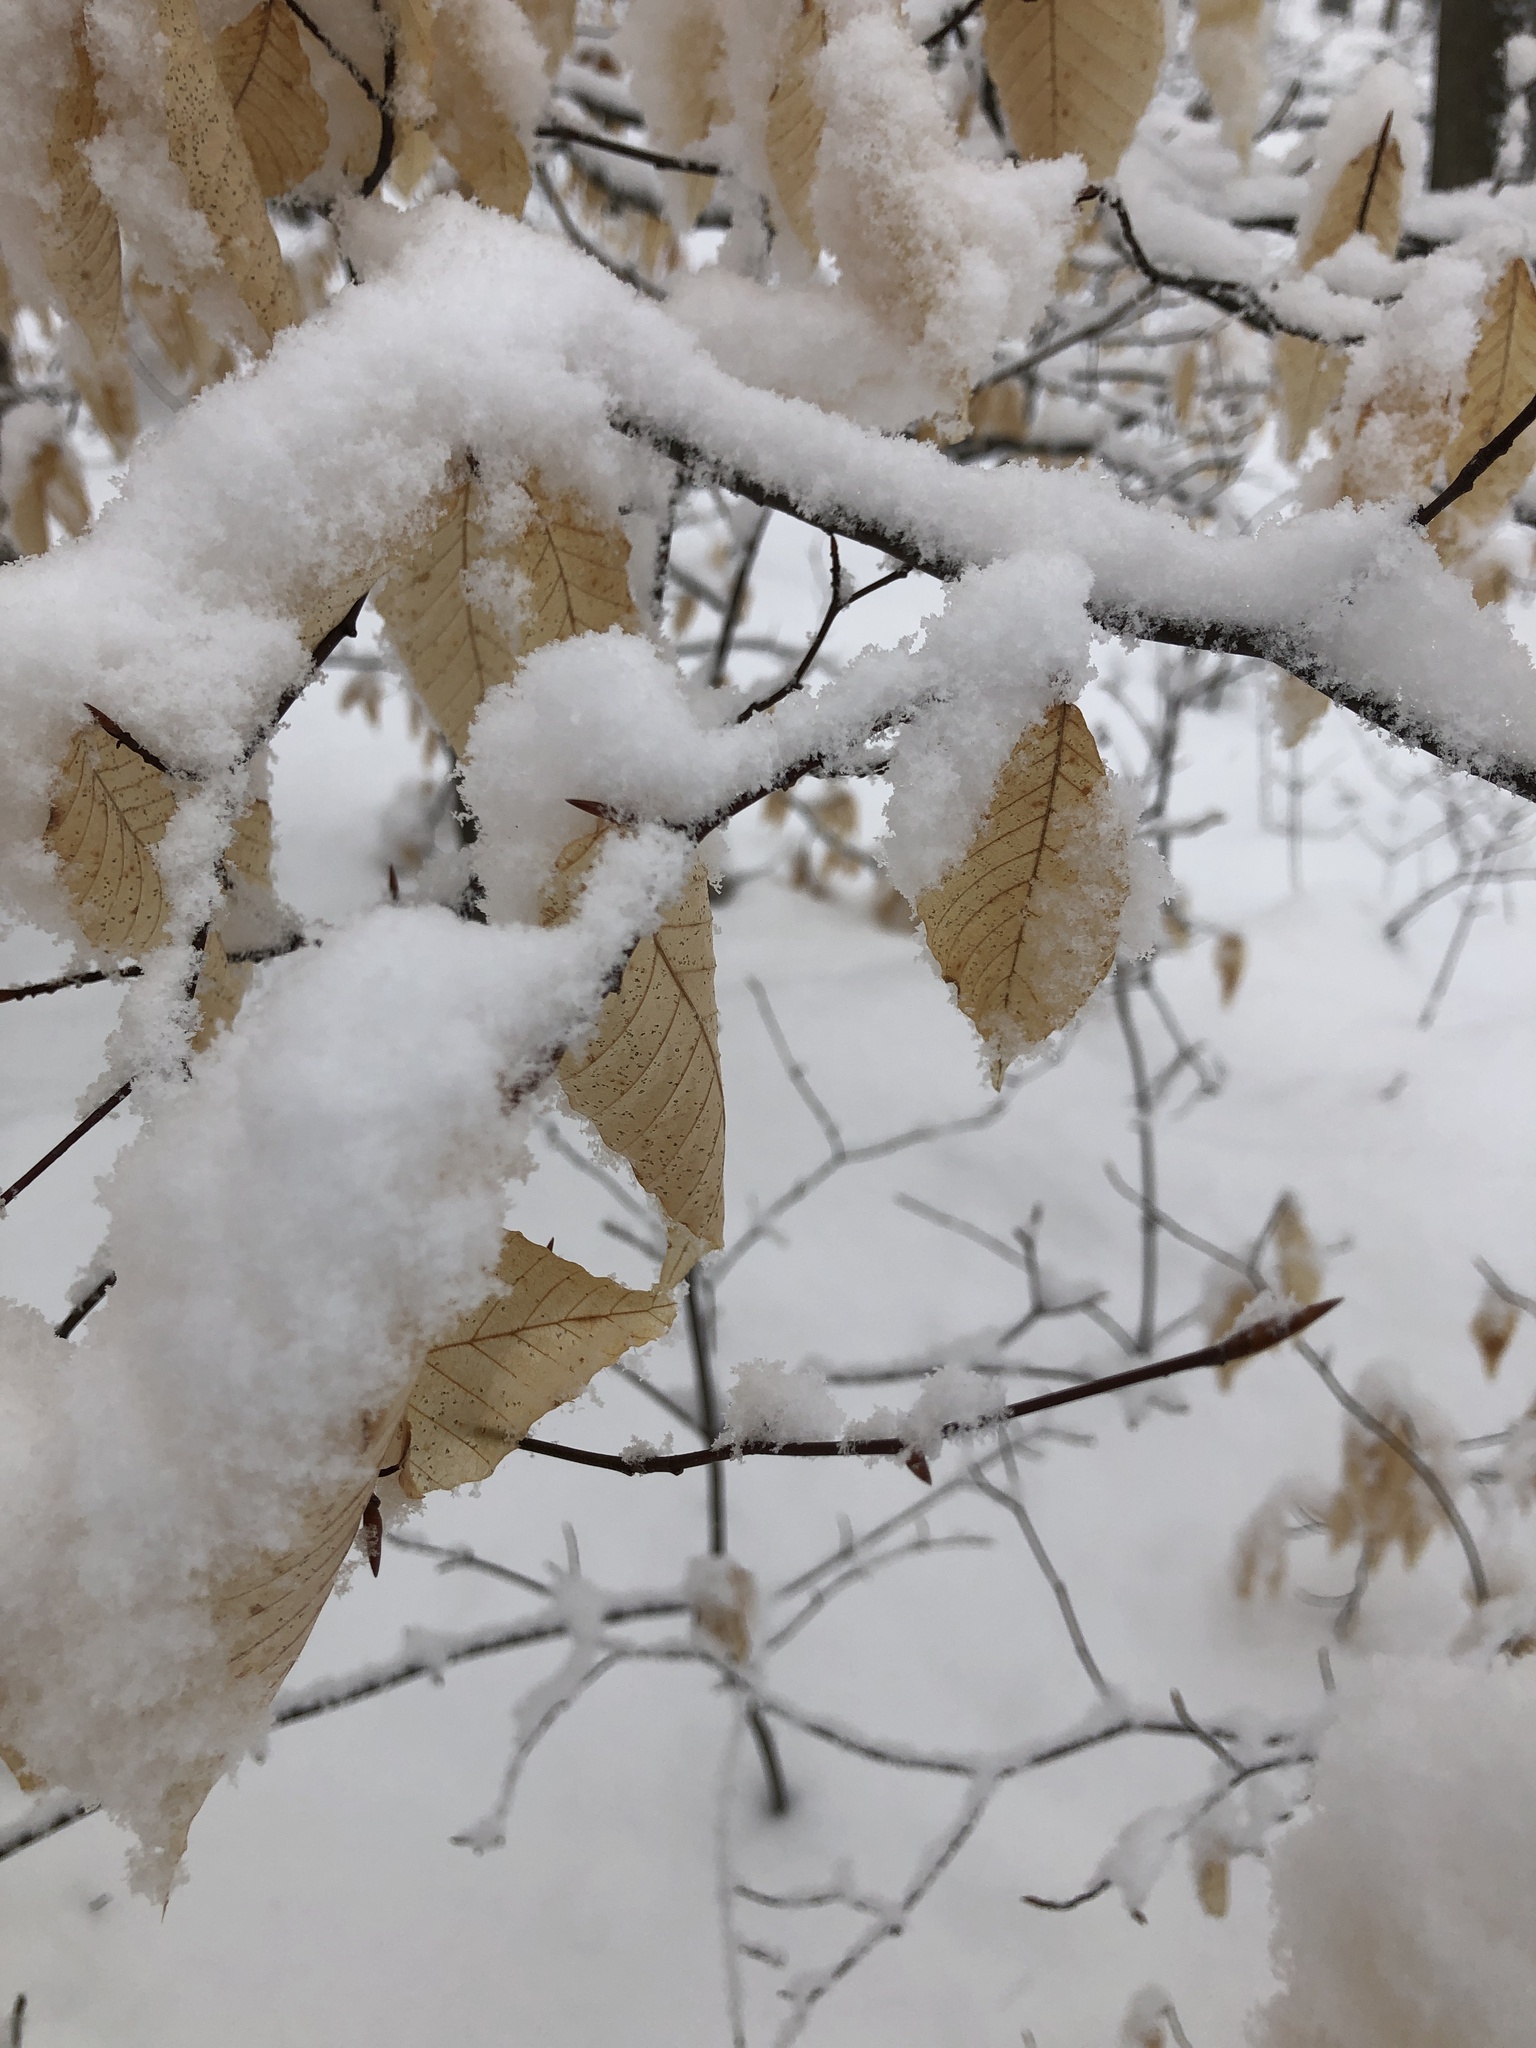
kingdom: Plantae
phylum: Tracheophyta
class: Magnoliopsida
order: Fagales
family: Fagaceae
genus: Fagus
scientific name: Fagus grandifolia
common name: American beech
